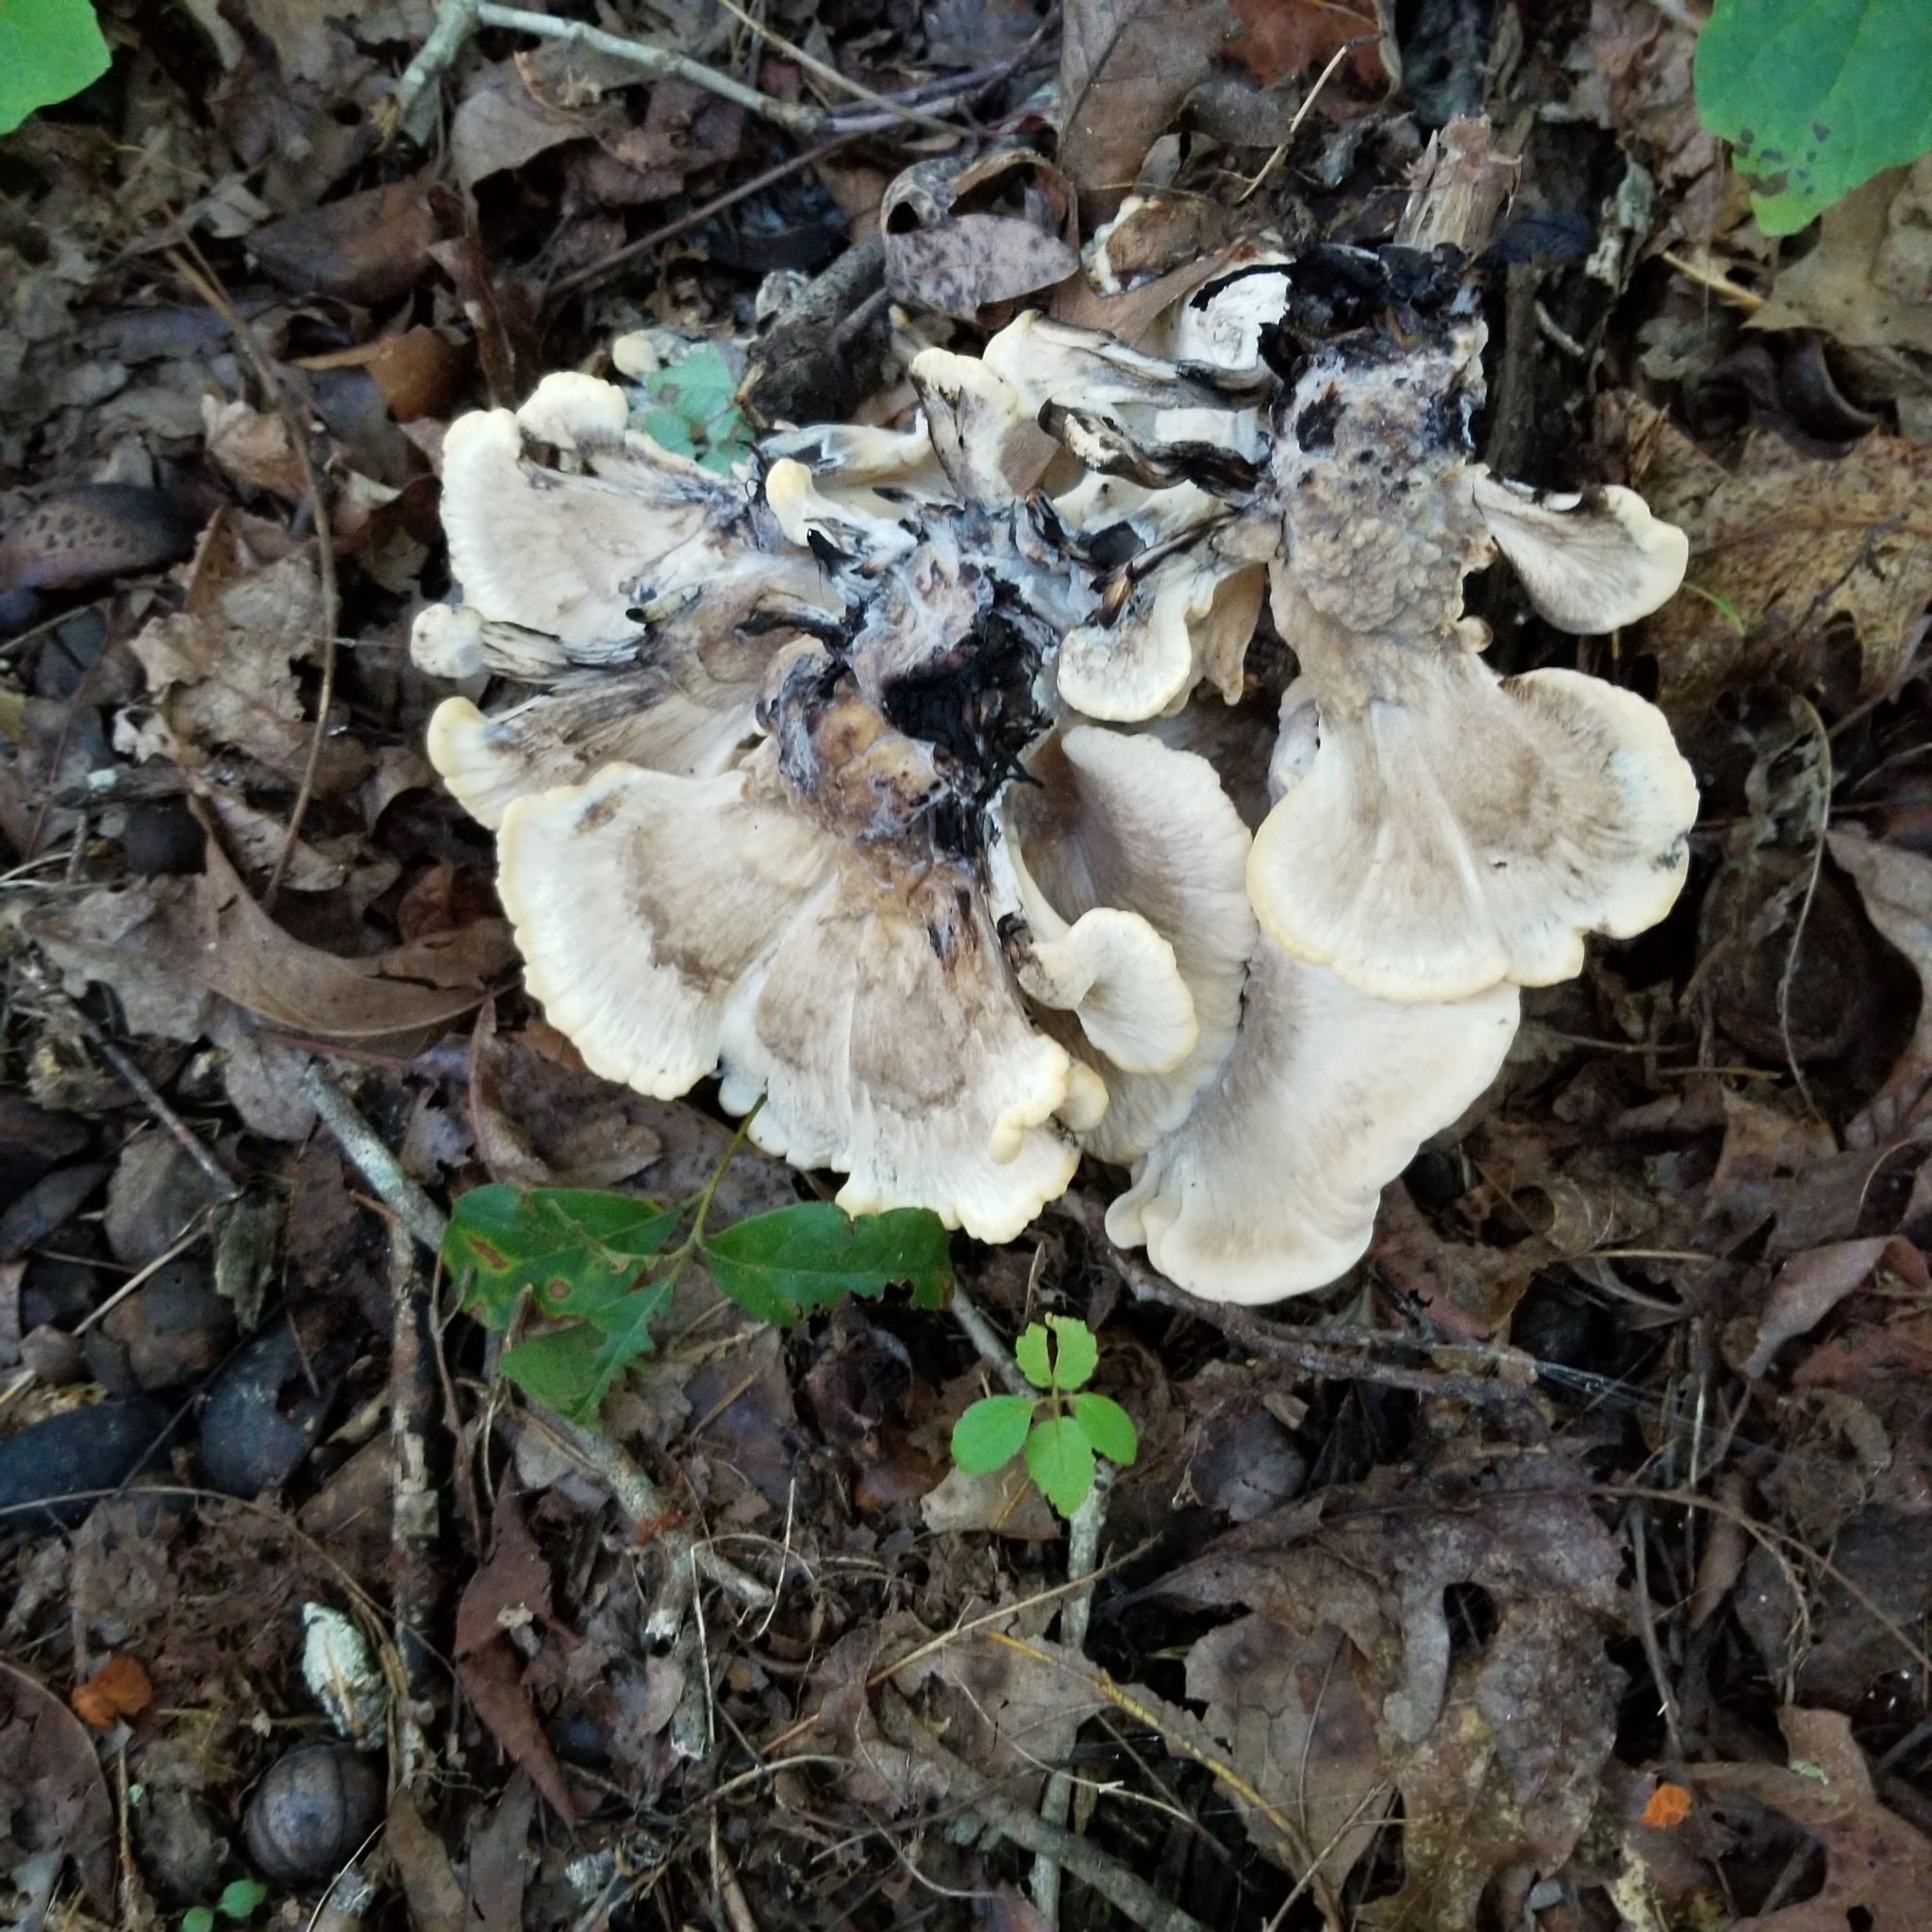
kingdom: Fungi
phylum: Basidiomycota
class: Agaricomycetes
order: Polyporales
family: Meripilaceae
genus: Meripilus
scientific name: Meripilus sumstinei
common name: Black-staining polypore
